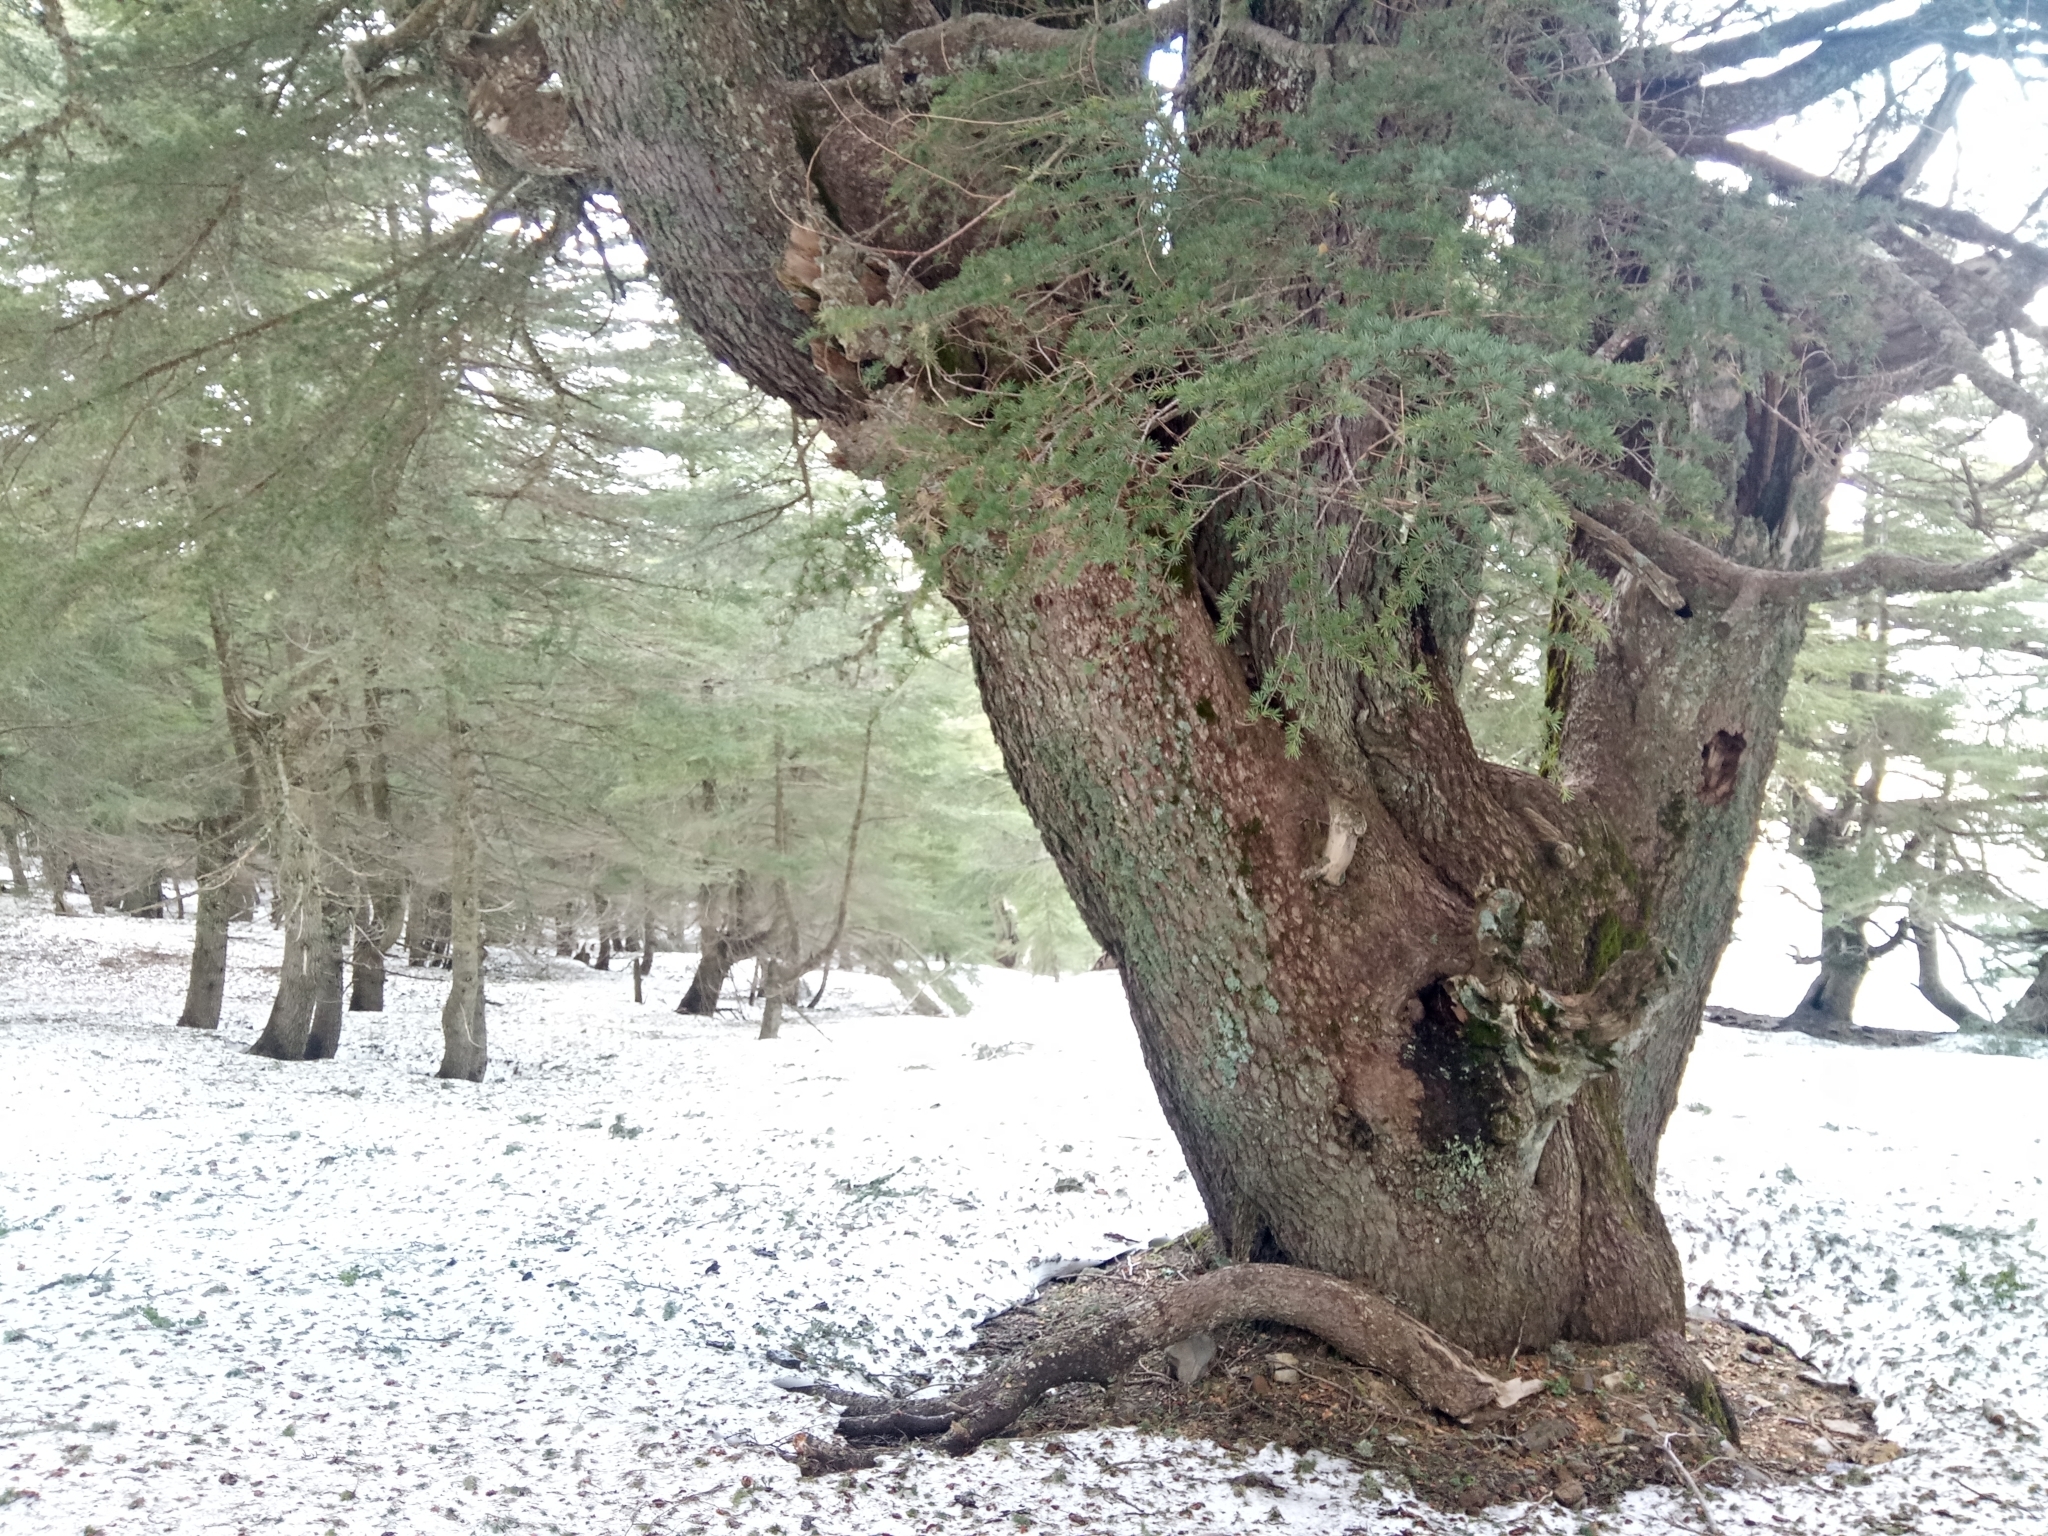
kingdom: Plantae
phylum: Tracheophyta
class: Pinopsida
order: Pinales
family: Pinaceae
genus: Cedrus
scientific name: Cedrus atlantica
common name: Atlas cedar
